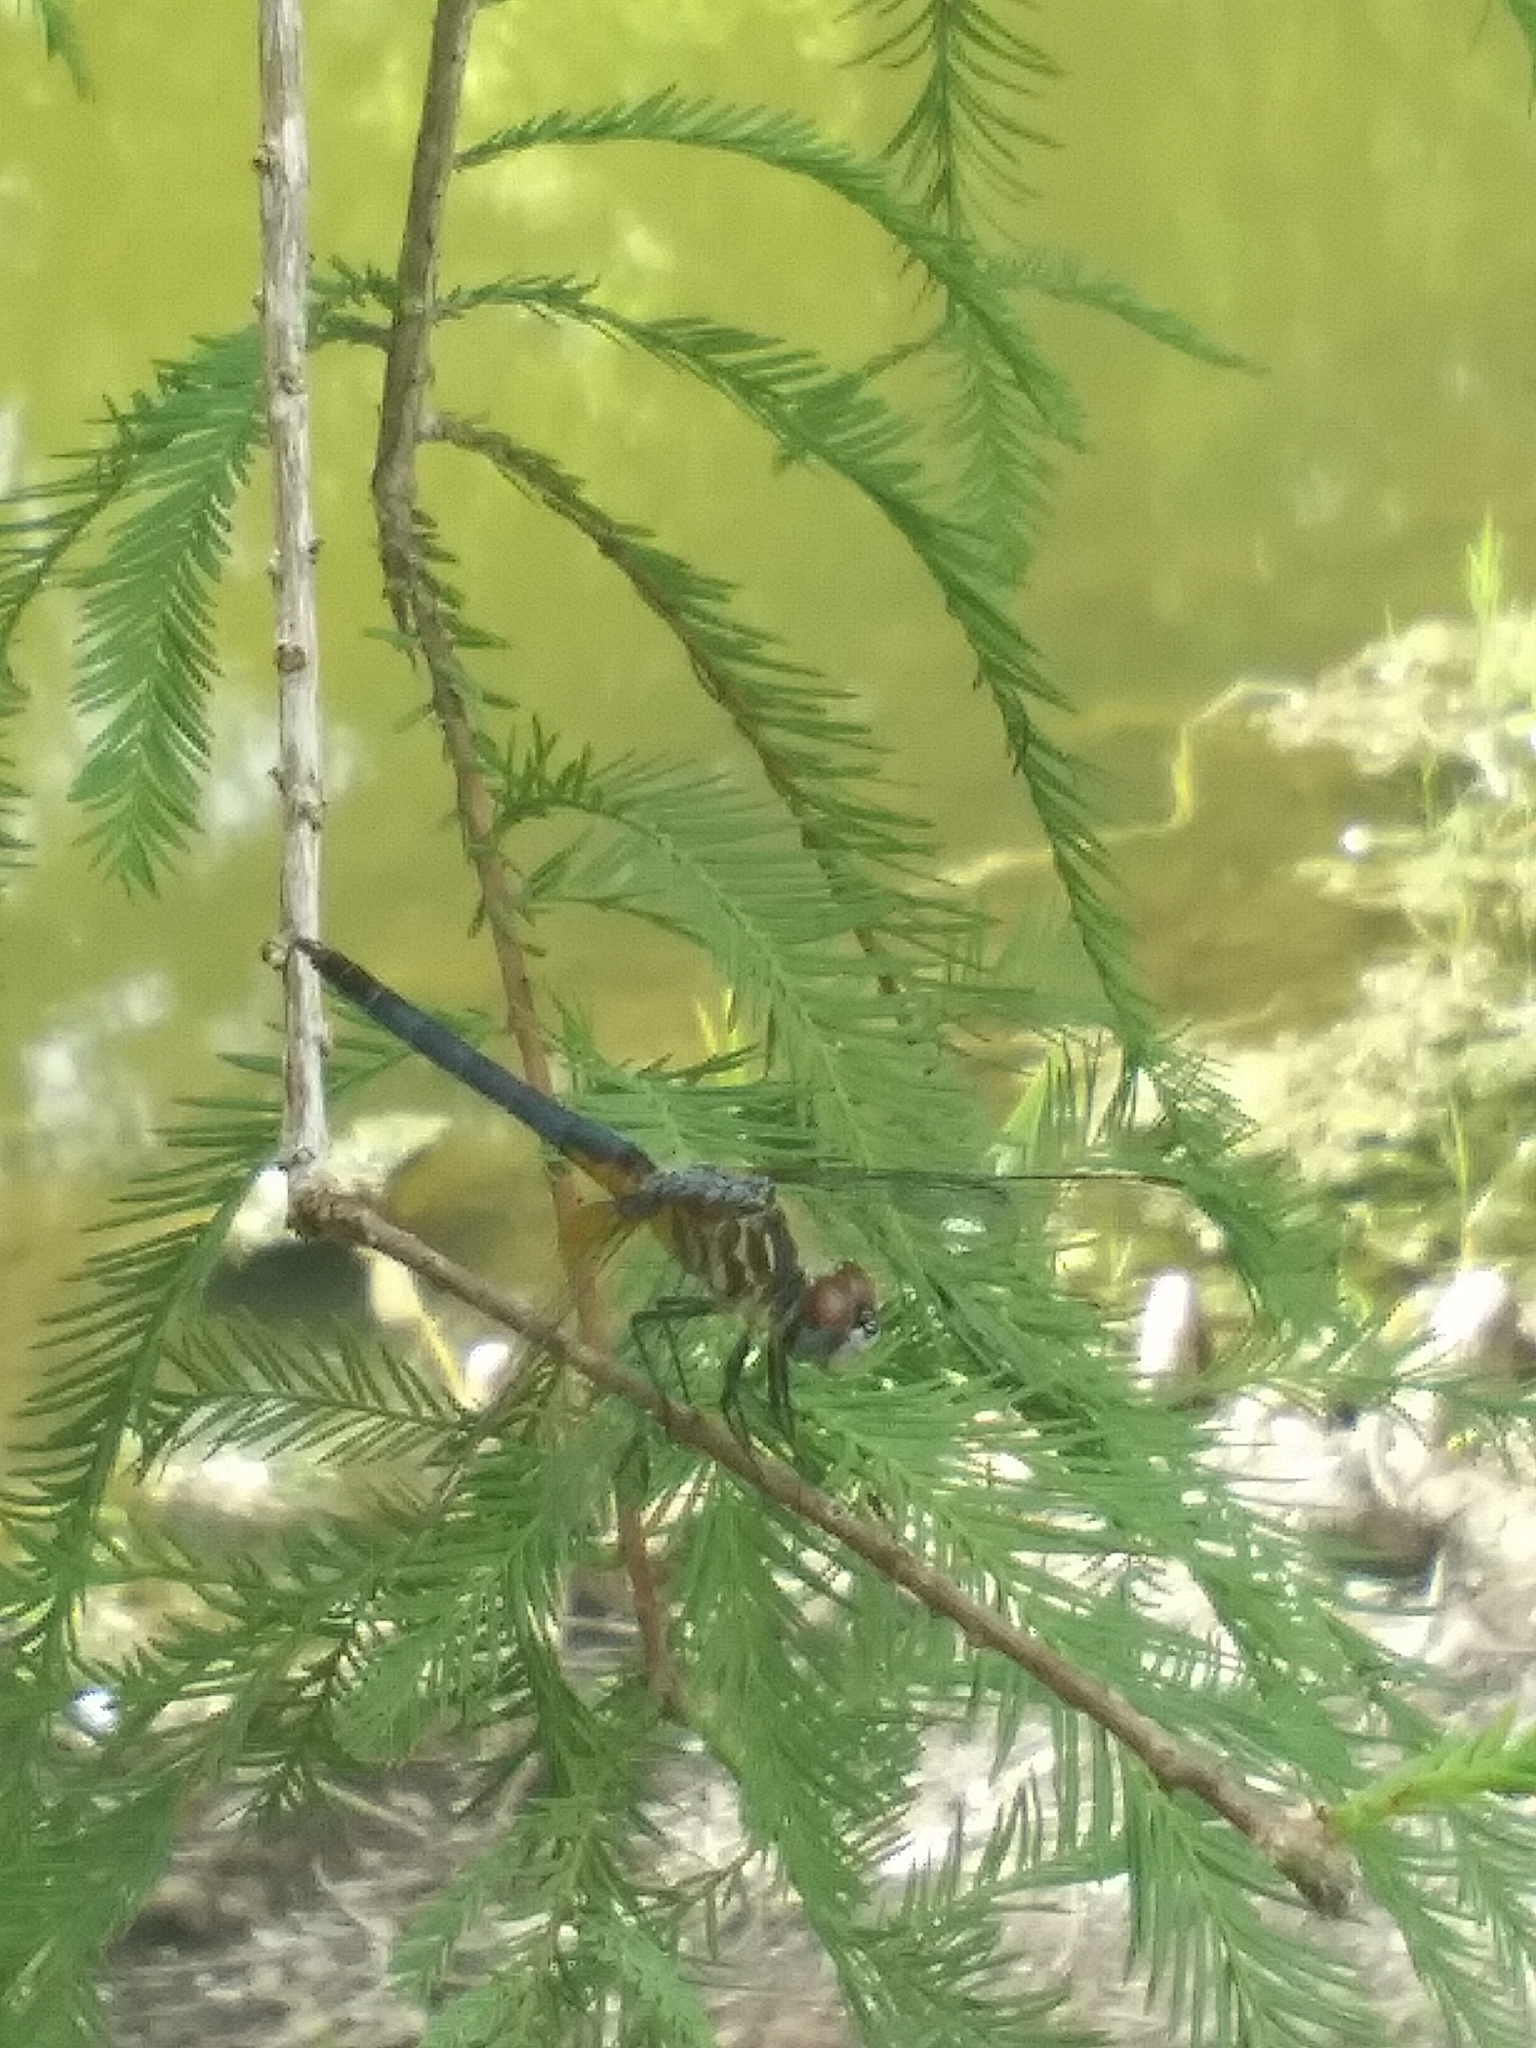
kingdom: Animalia
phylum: Arthropoda
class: Insecta
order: Odonata
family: Libellulidae
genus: Pachydiplax
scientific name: Pachydiplax longipennis
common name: Blue dasher
